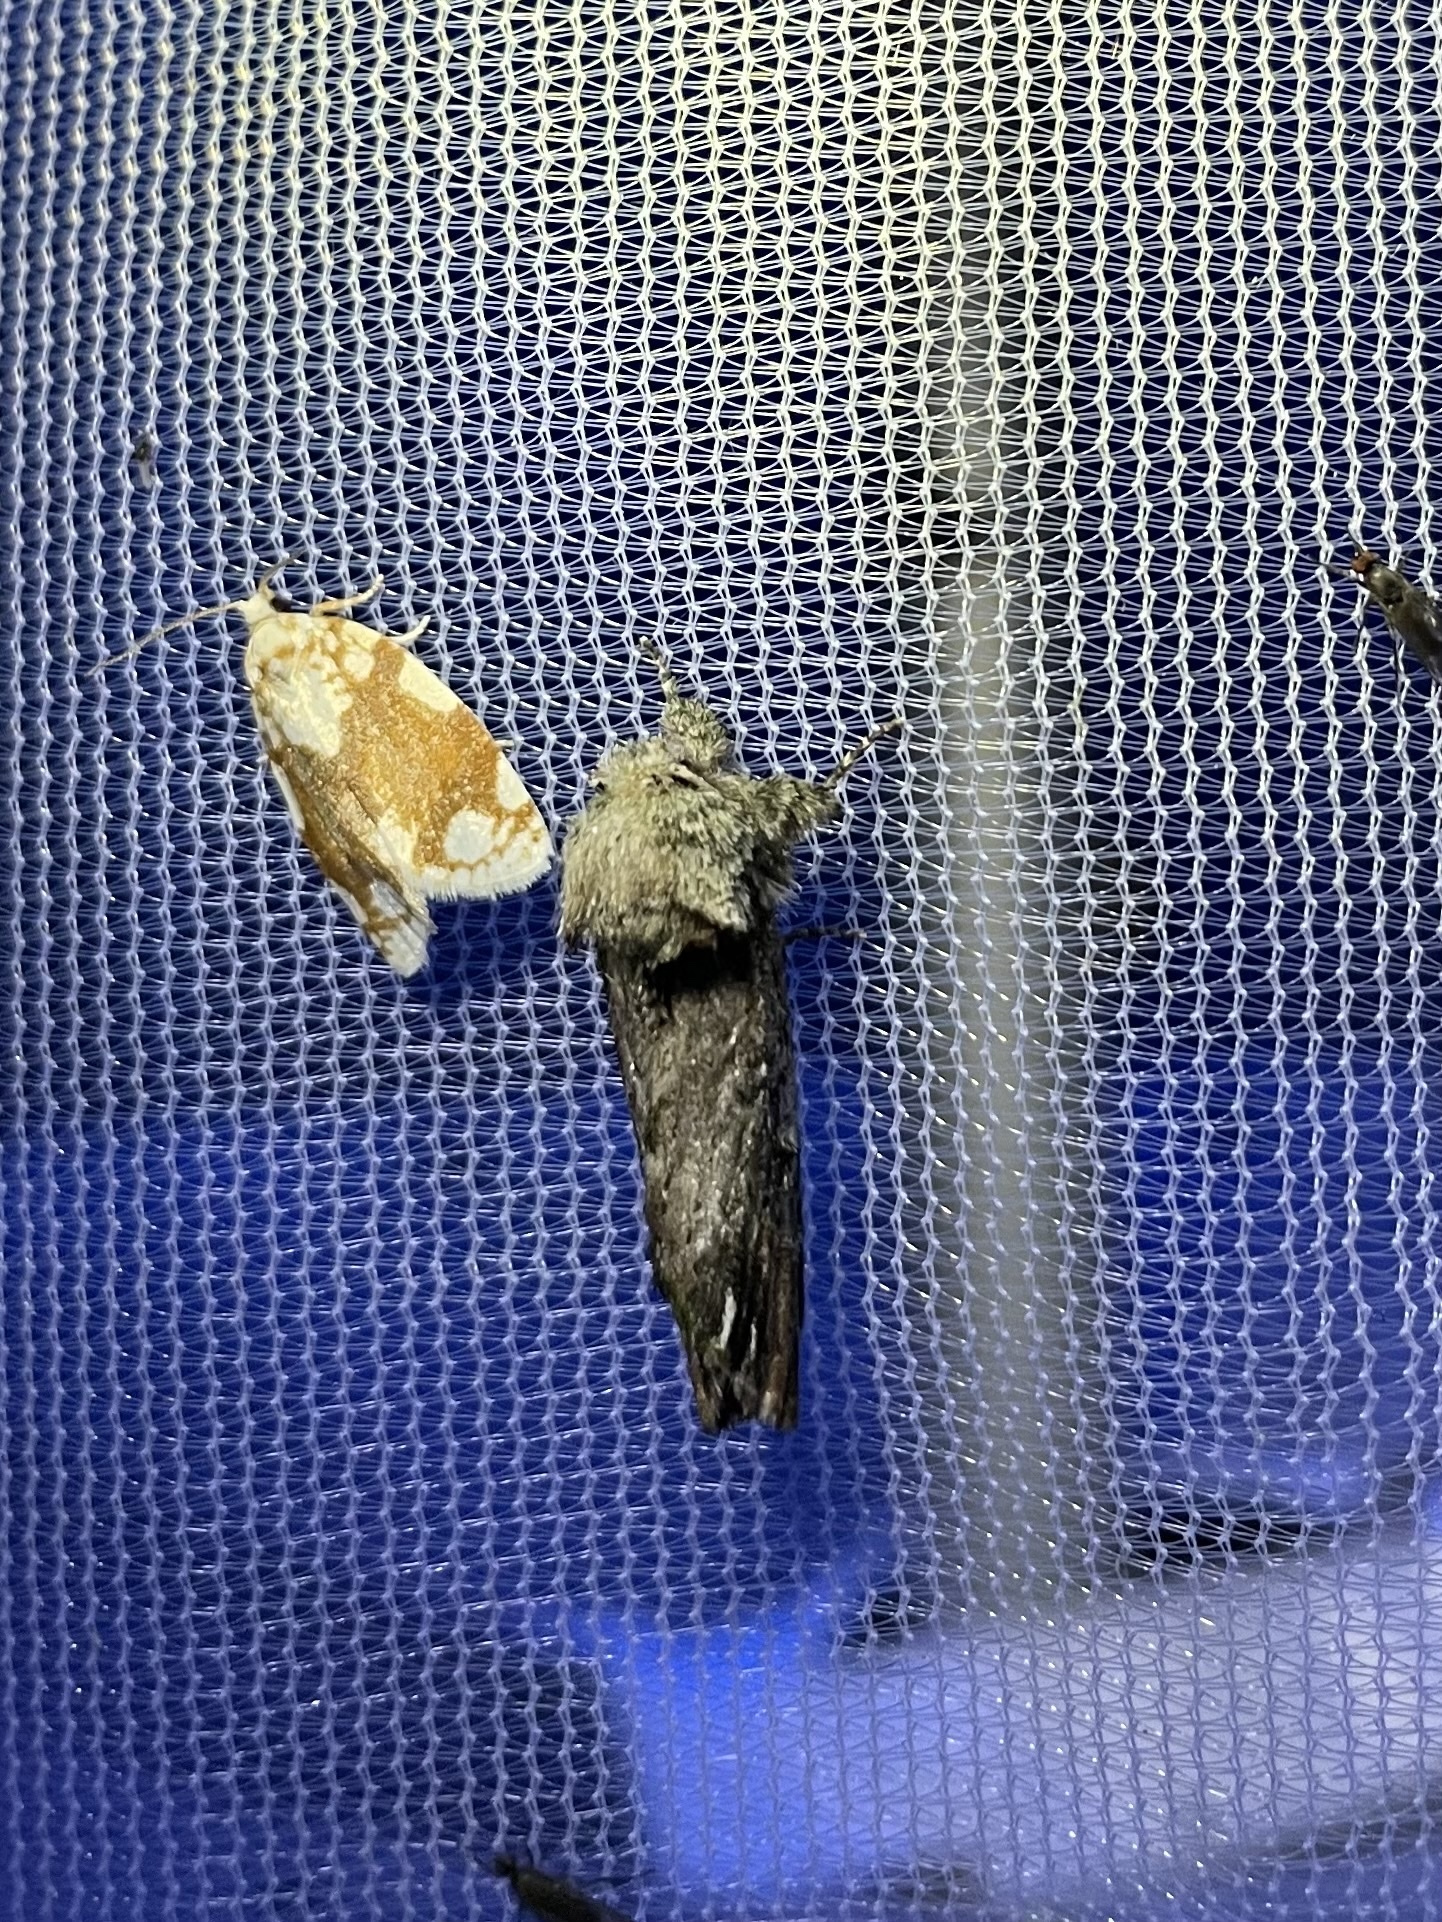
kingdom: Animalia
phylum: Arthropoda
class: Insecta
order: Lepidoptera
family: Notodontidae
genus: Schizura
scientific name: Schizura
